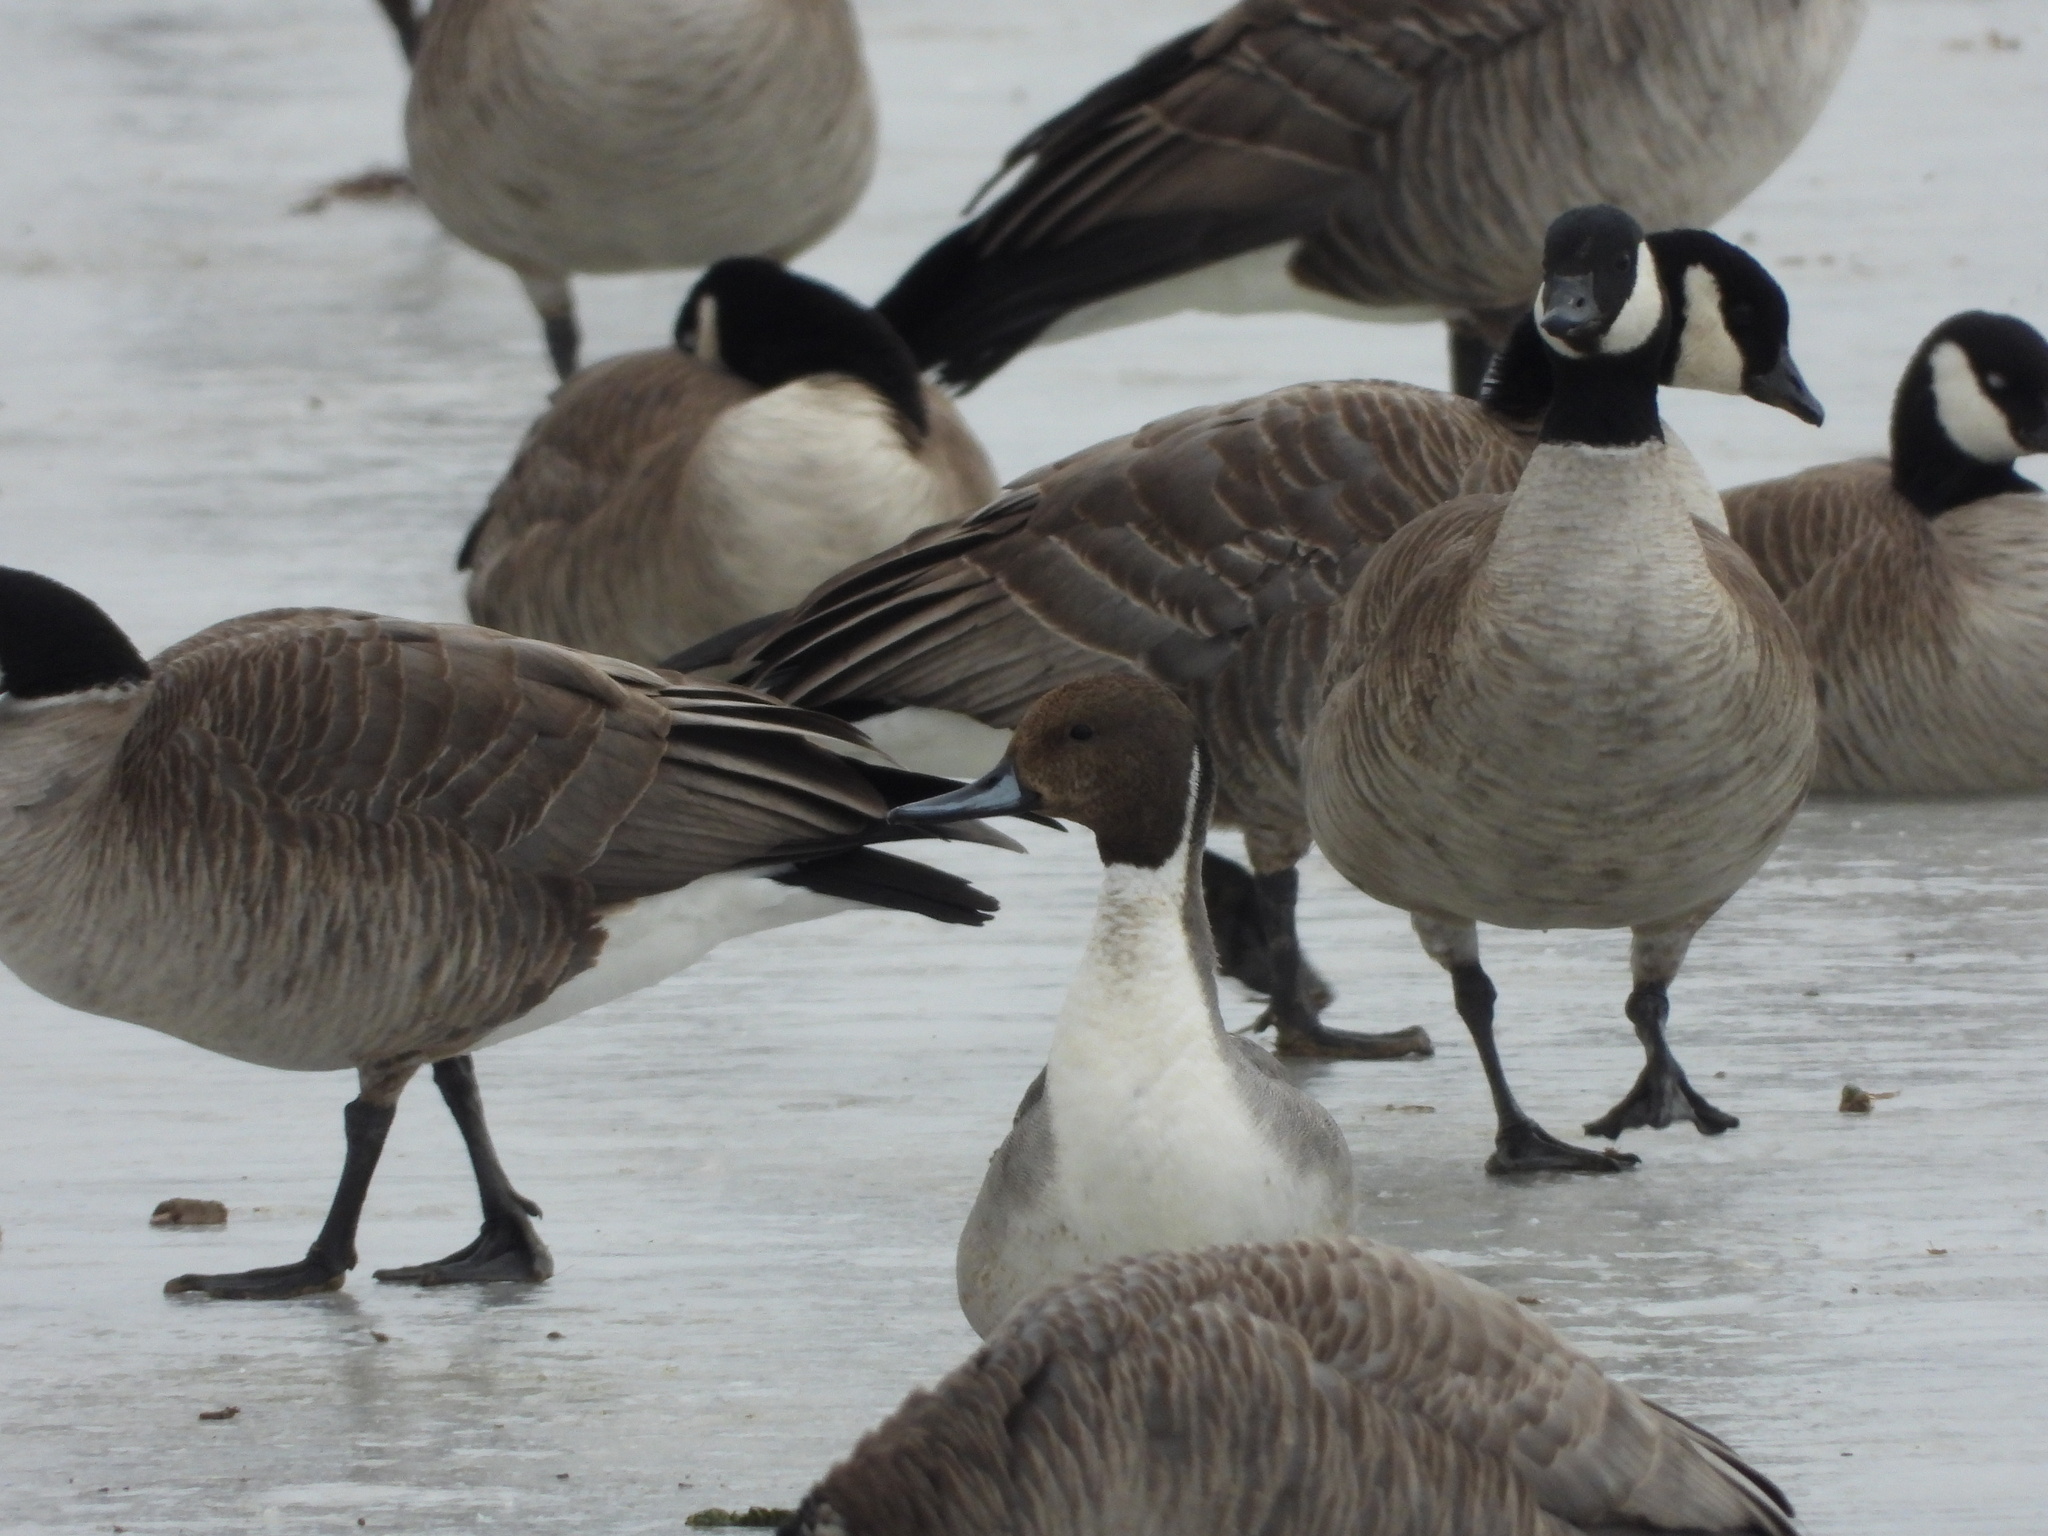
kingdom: Animalia
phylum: Chordata
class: Aves
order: Anseriformes
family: Anatidae
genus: Anas
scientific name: Anas acuta
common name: Northern pintail
